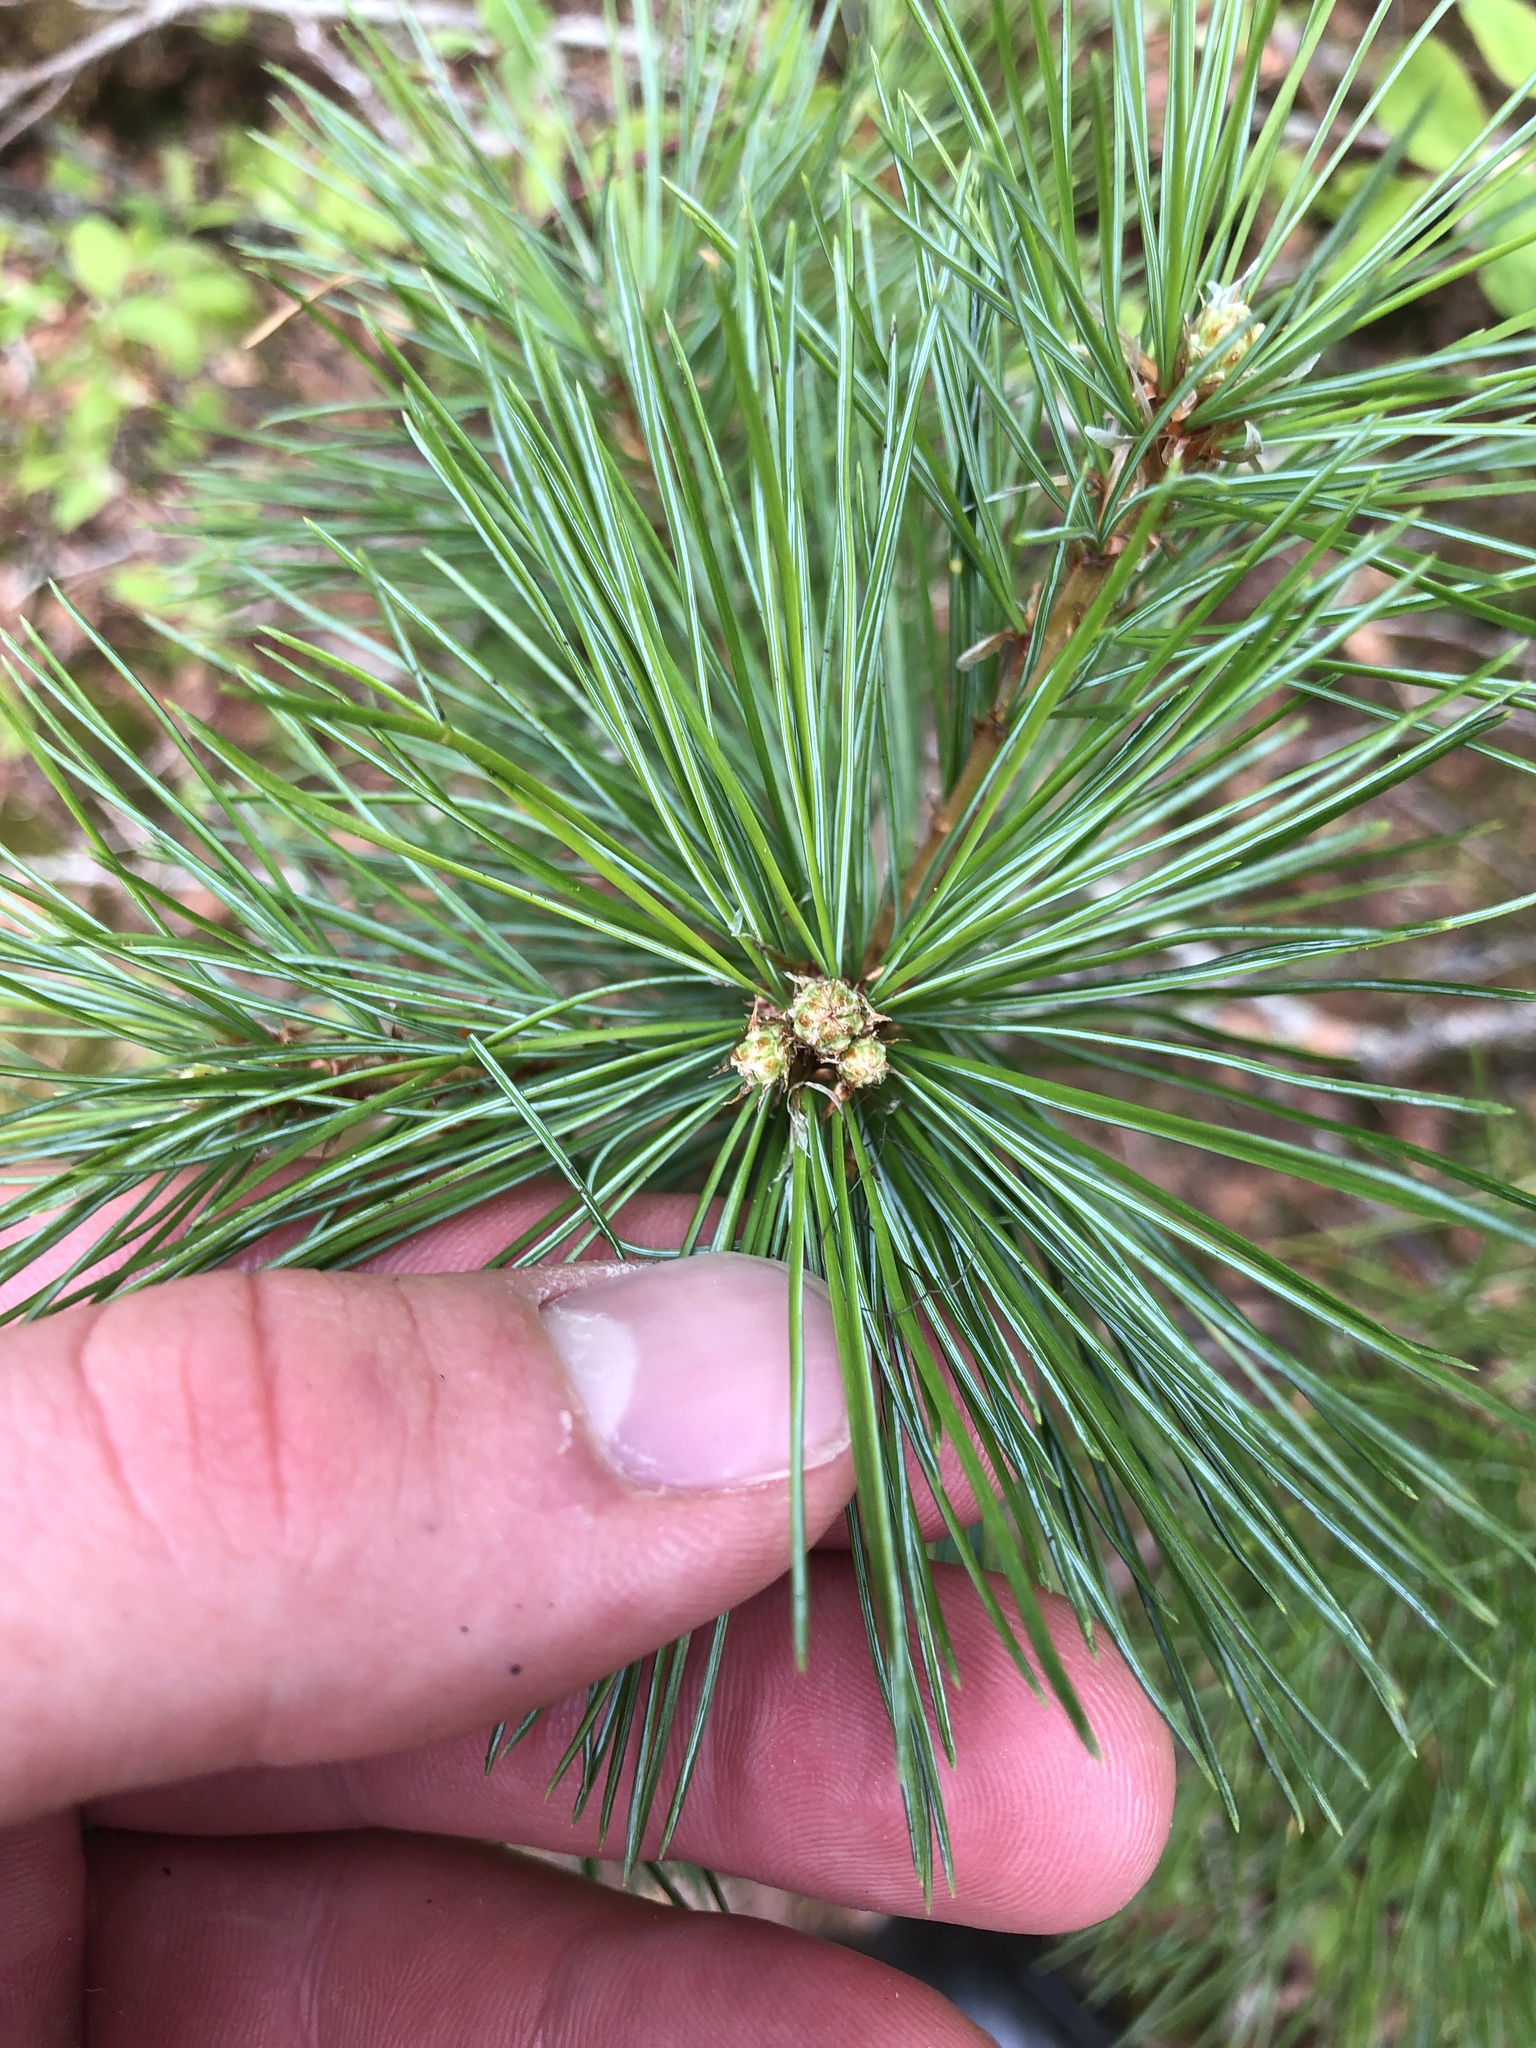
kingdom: Plantae
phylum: Tracheophyta
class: Pinopsida
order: Pinales
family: Pinaceae
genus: Pinus
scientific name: Pinus monticola
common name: Western white pine
